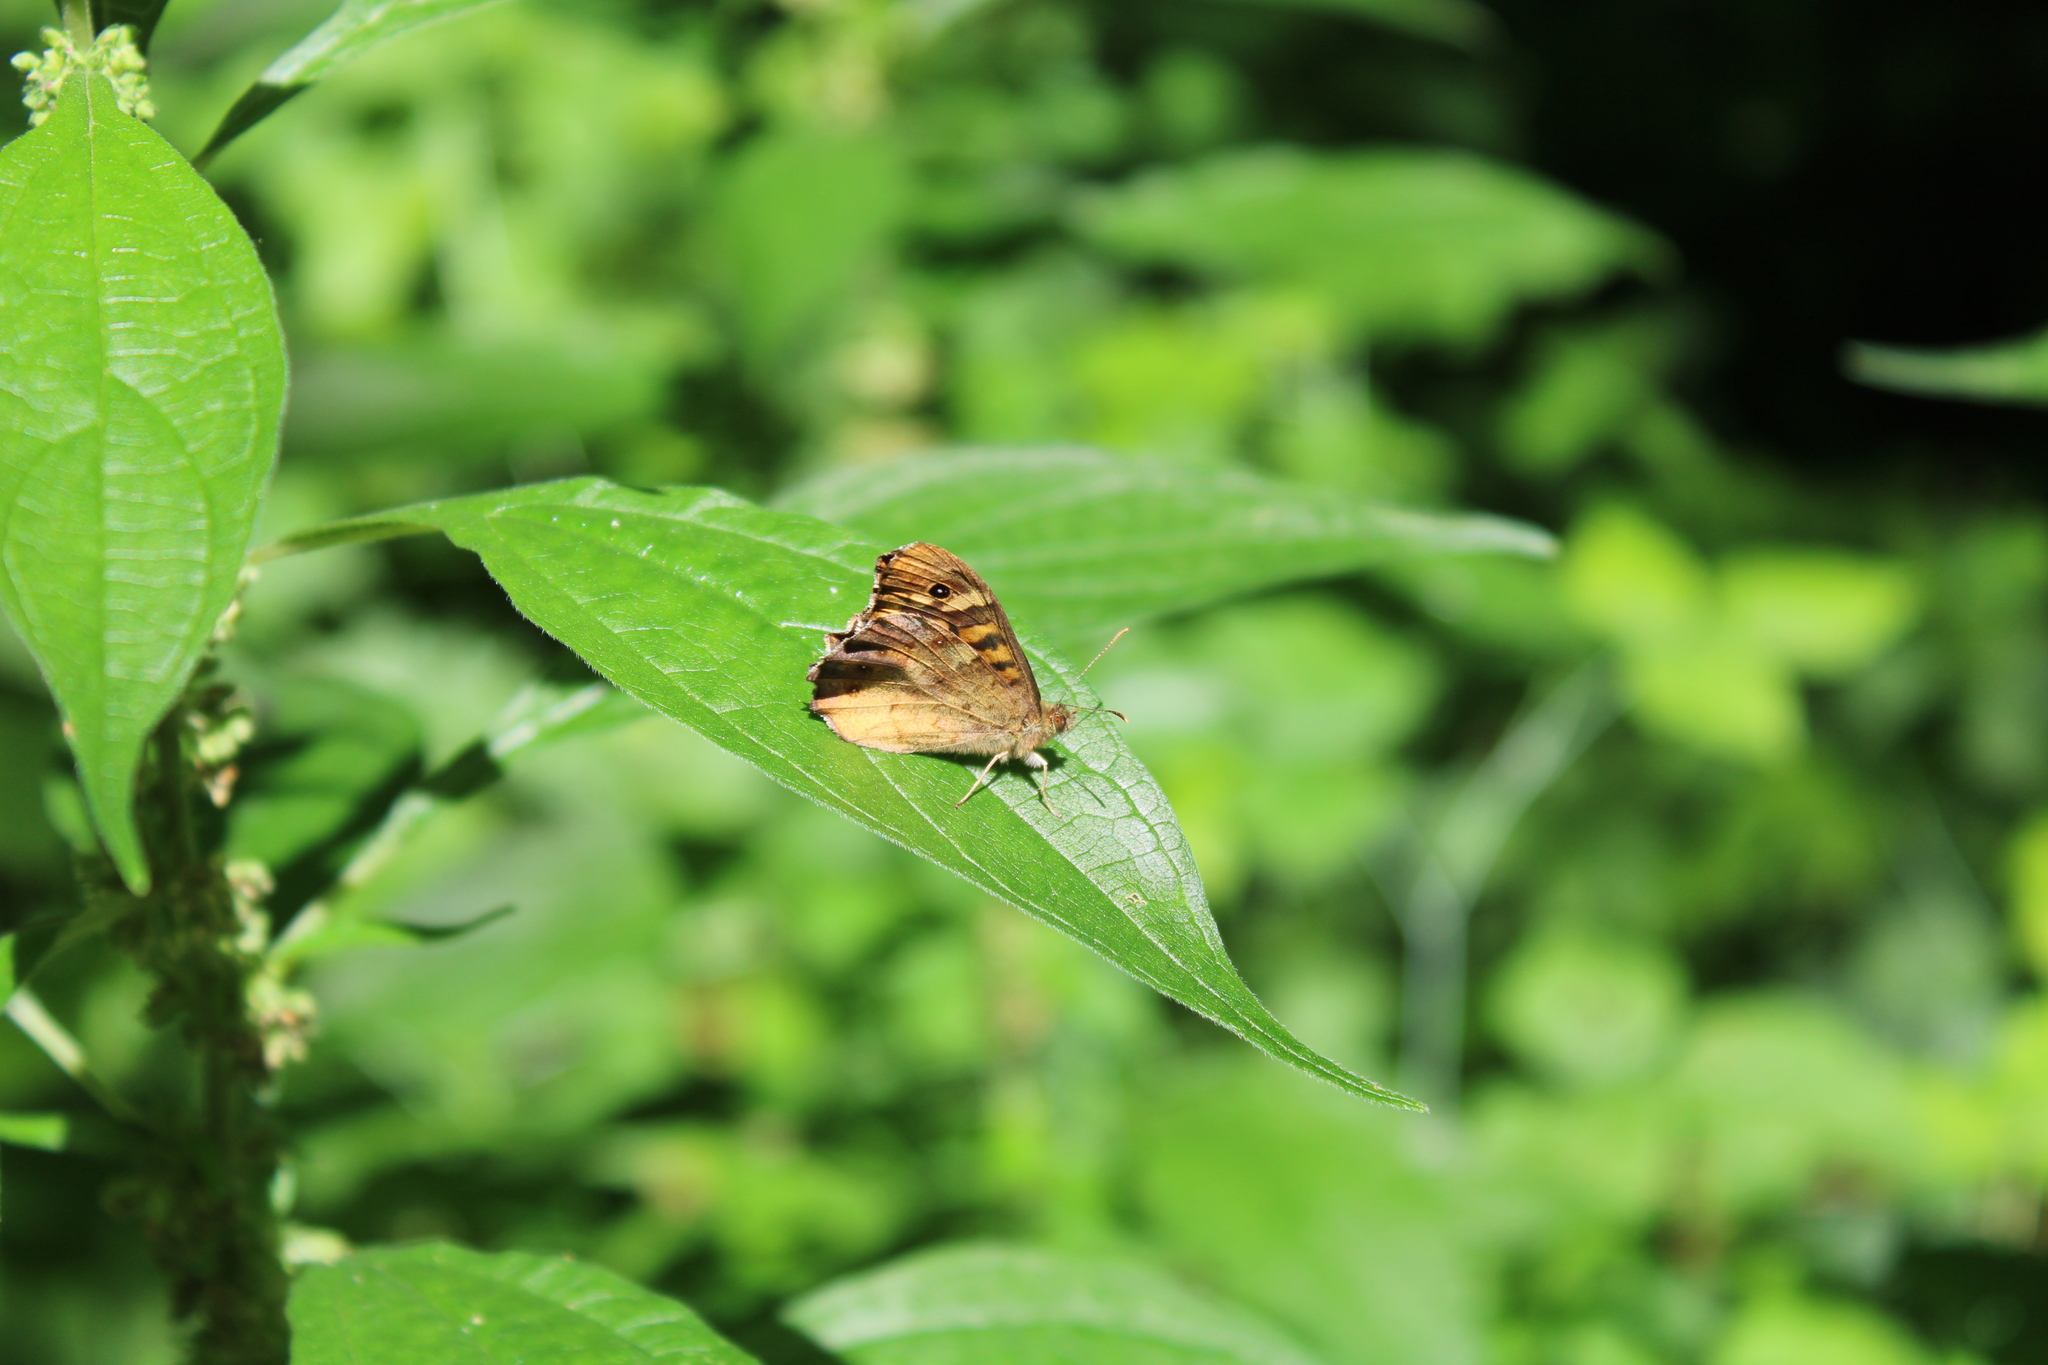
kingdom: Animalia
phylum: Arthropoda
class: Insecta
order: Lepidoptera
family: Nymphalidae
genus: Pararge
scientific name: Pararge aegeria
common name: Speckled wood
